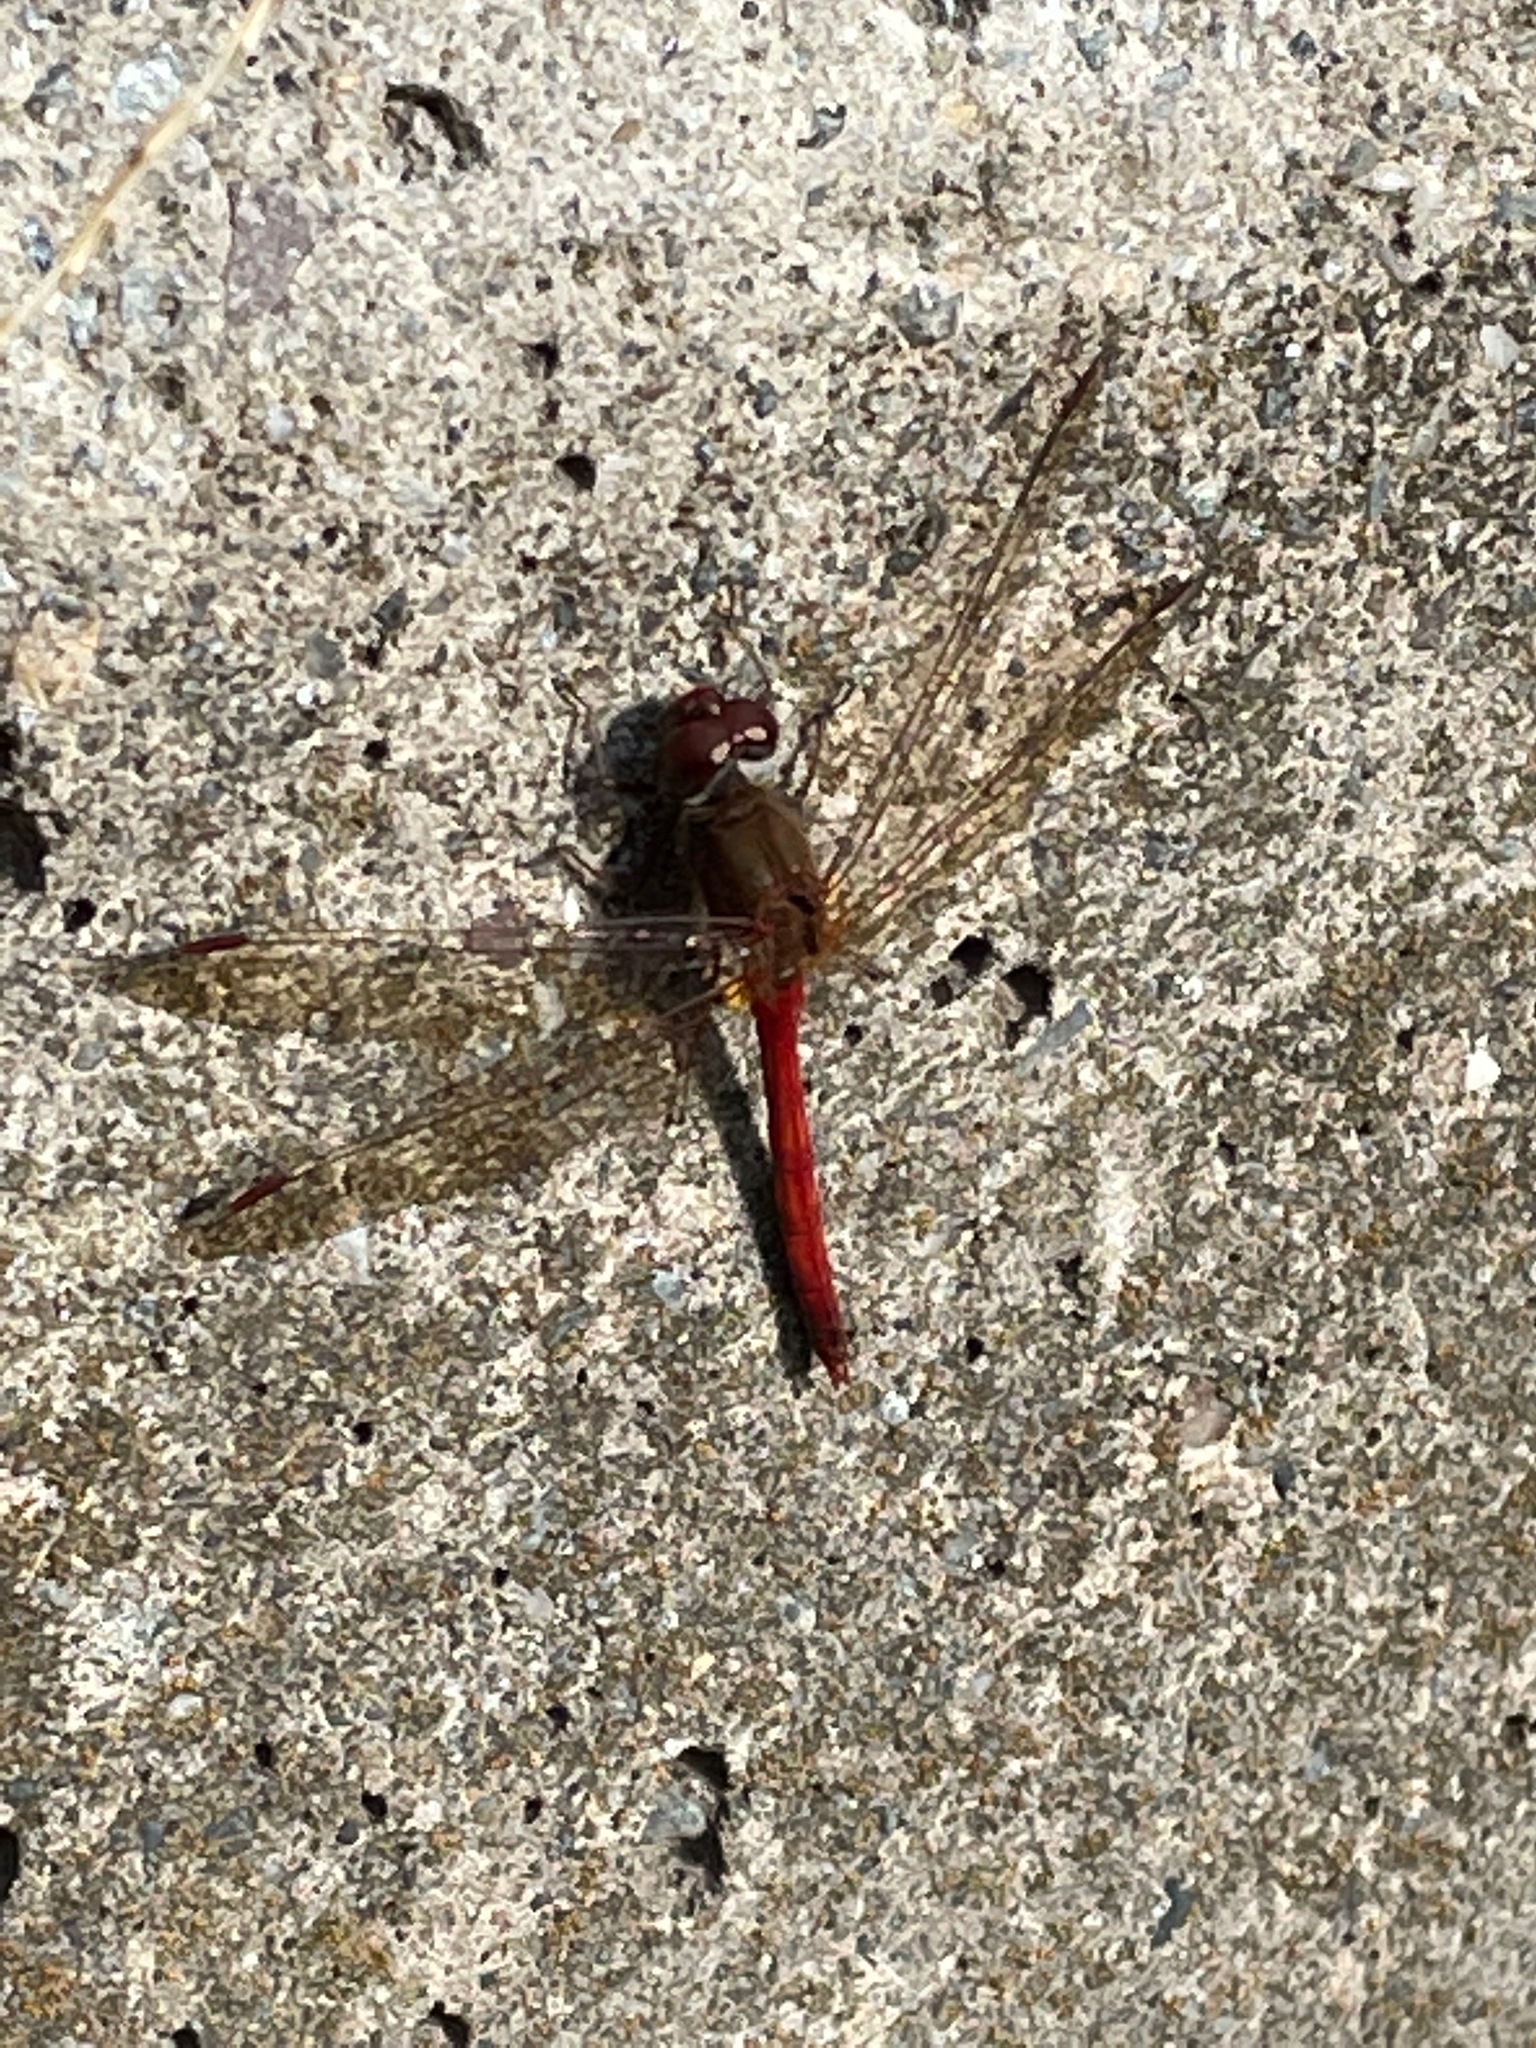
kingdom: Animalia
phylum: Arthropoda
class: Insecta
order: Odonata
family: Libellulidae
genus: Sympetrum
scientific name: Sympetrum vicinum
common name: Autumn meadowhawk
